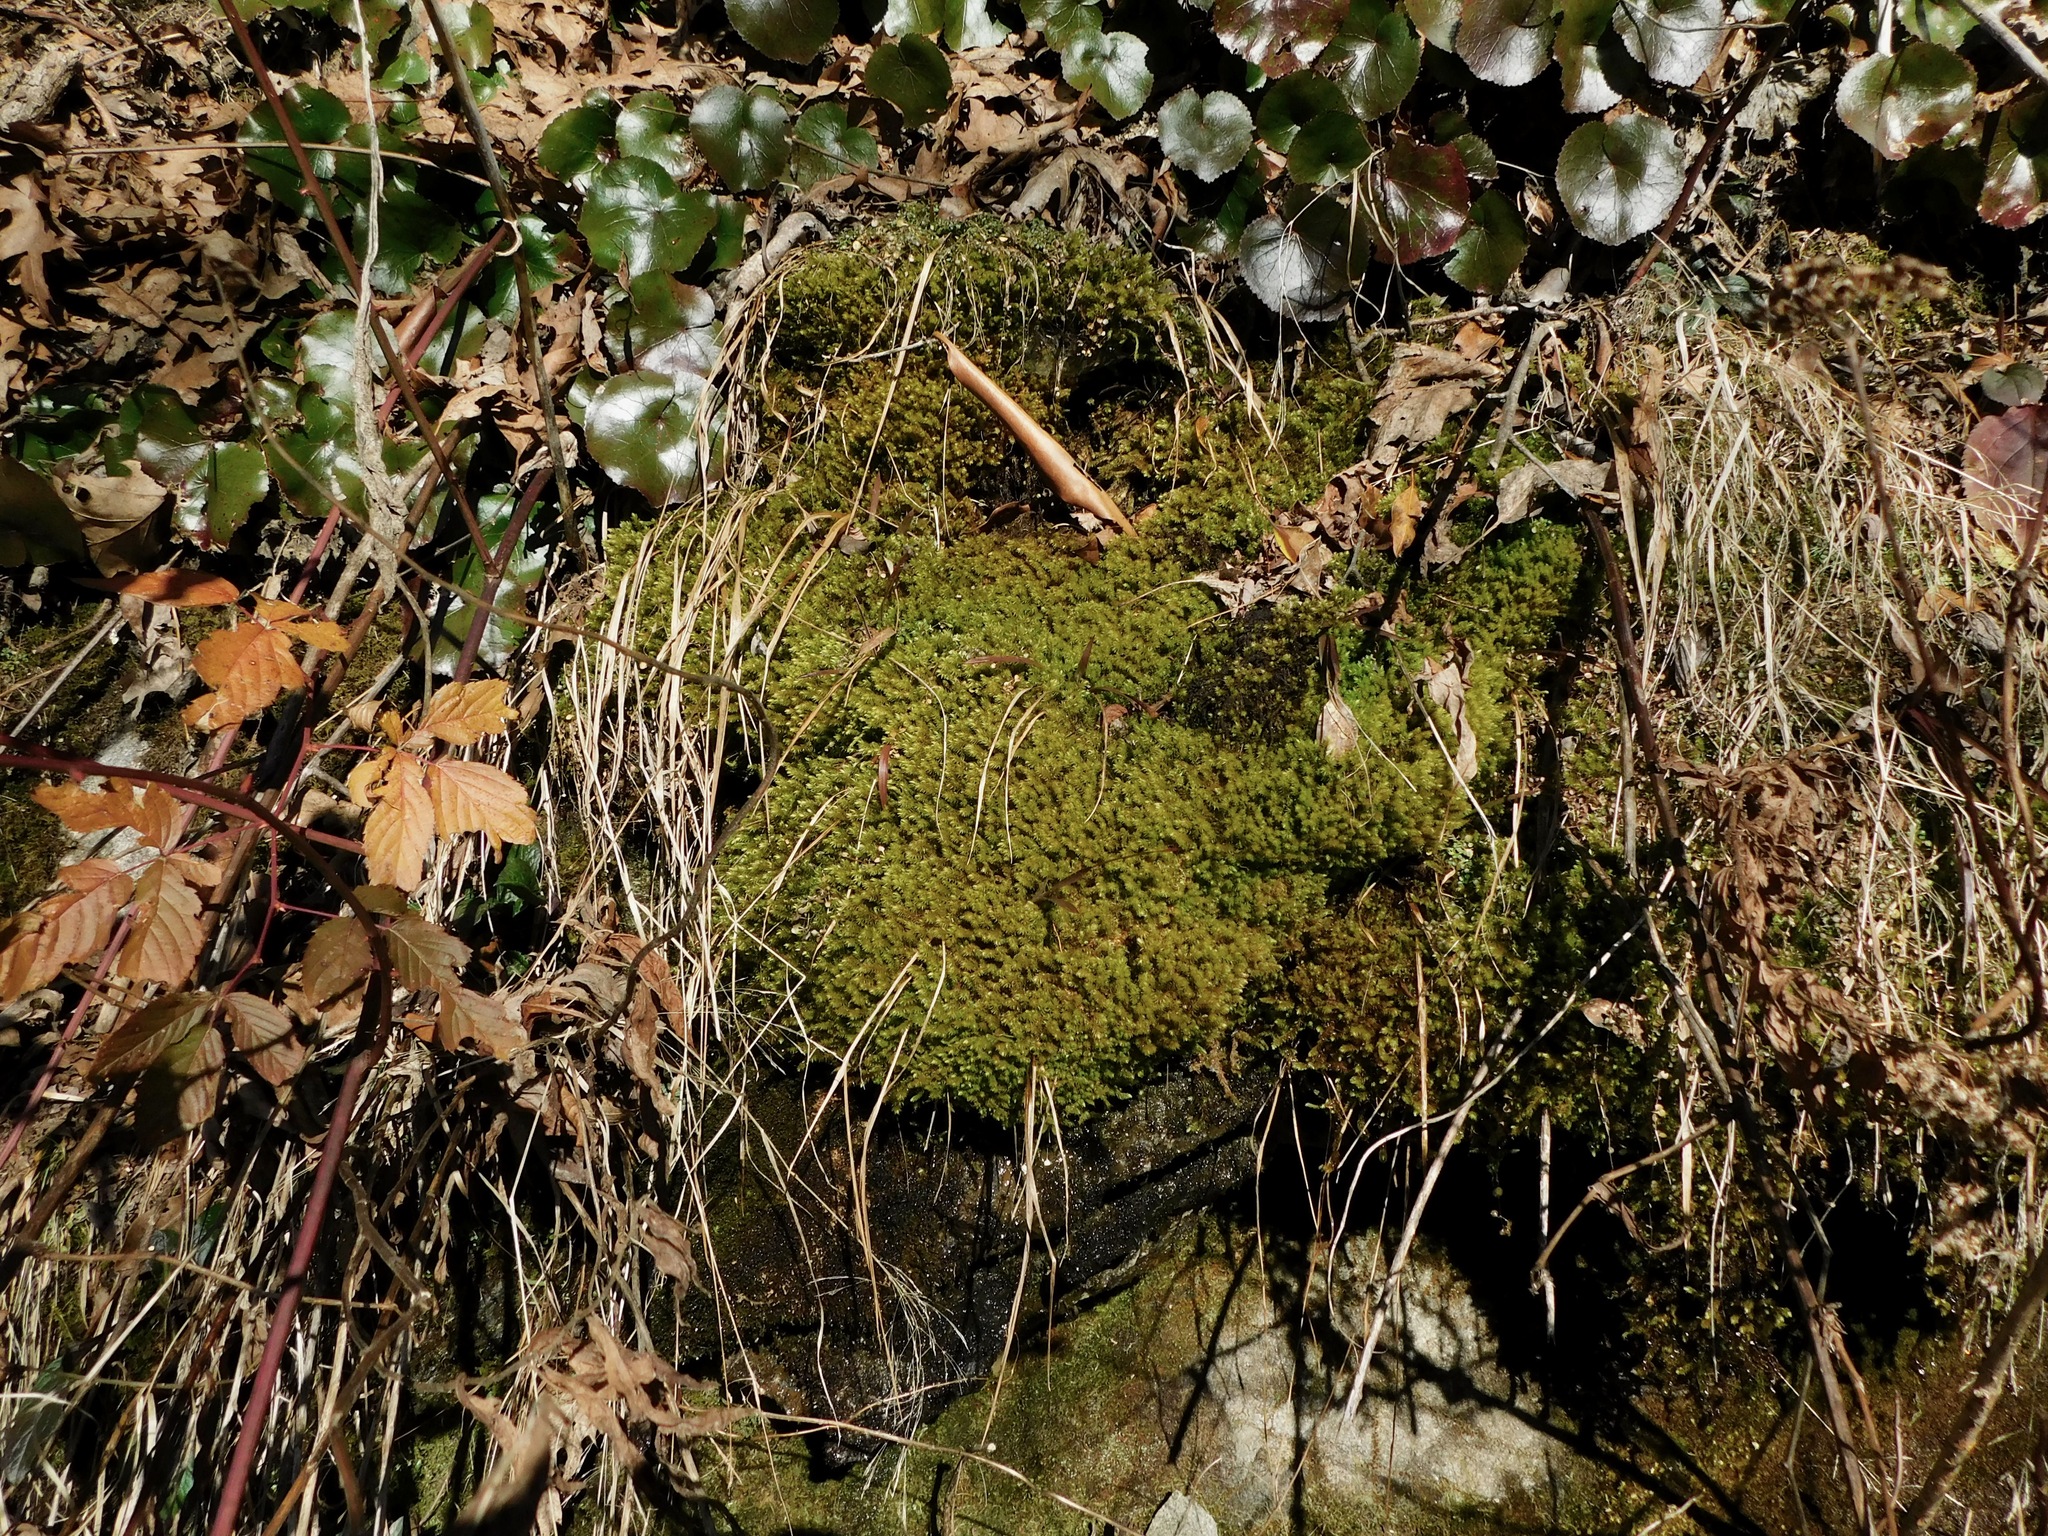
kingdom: Plantae
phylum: Bryophyta
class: Bryopsida
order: Aulacomniales
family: Aulacomniaceae
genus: Aulacomnium
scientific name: Aulacomnium palustre
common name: Bog groove-moss
